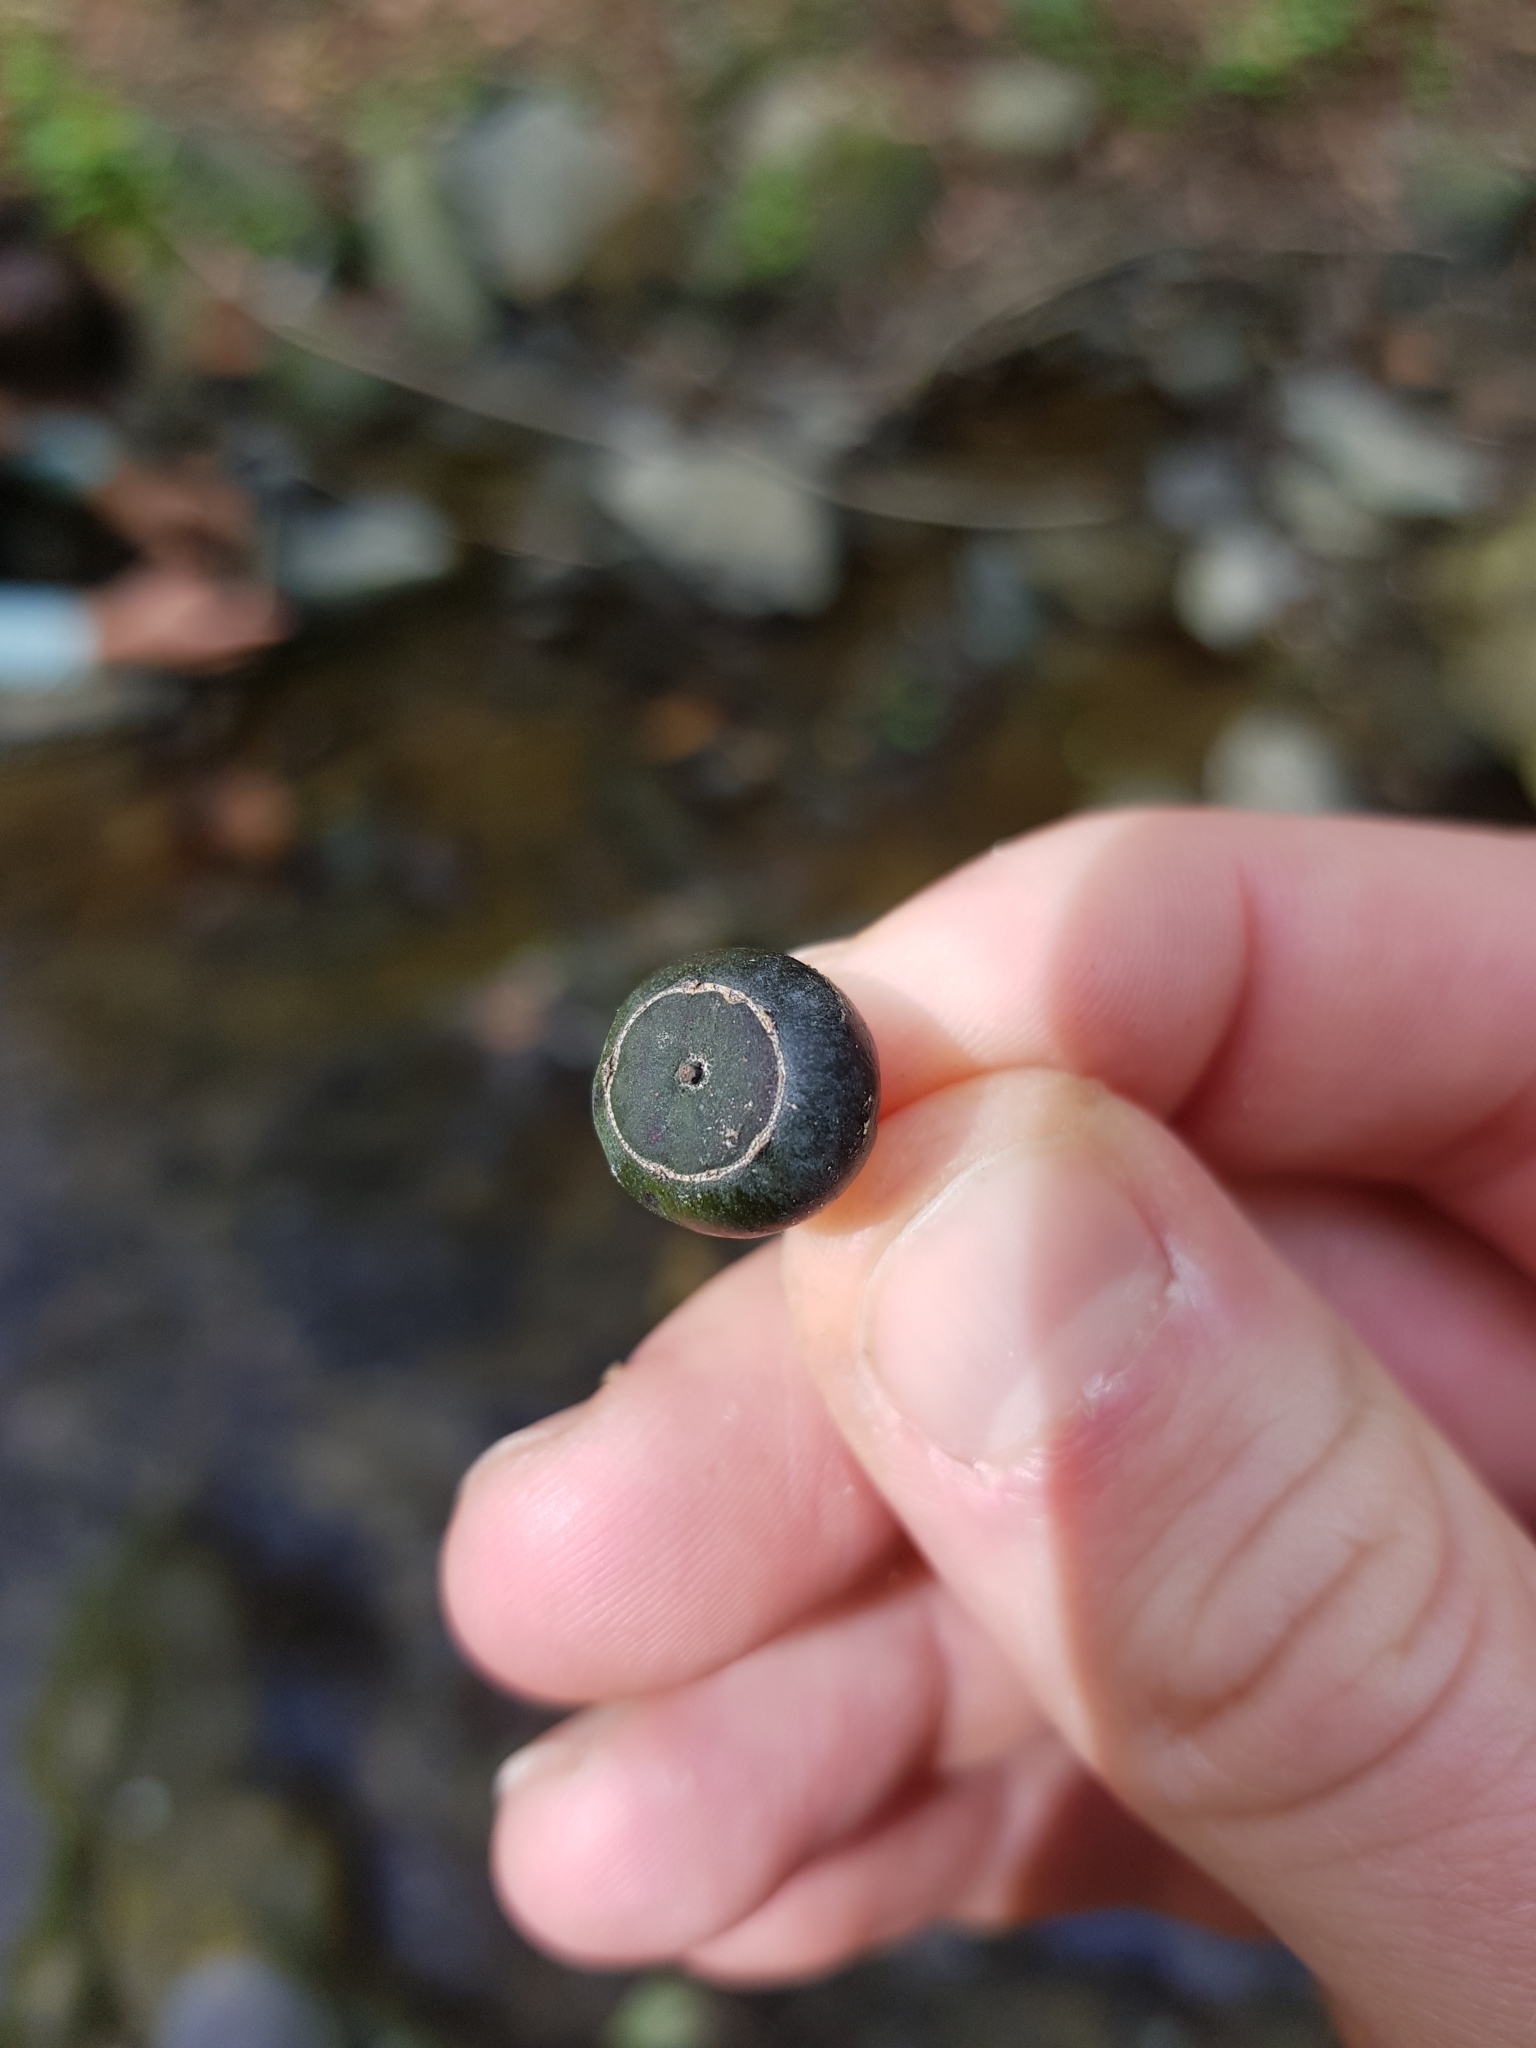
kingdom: Plantae
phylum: Tracheophyta
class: Magnoliopsida
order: Apiales
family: Araliaceae
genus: Hedera
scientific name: Hedera helix
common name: Ivy
